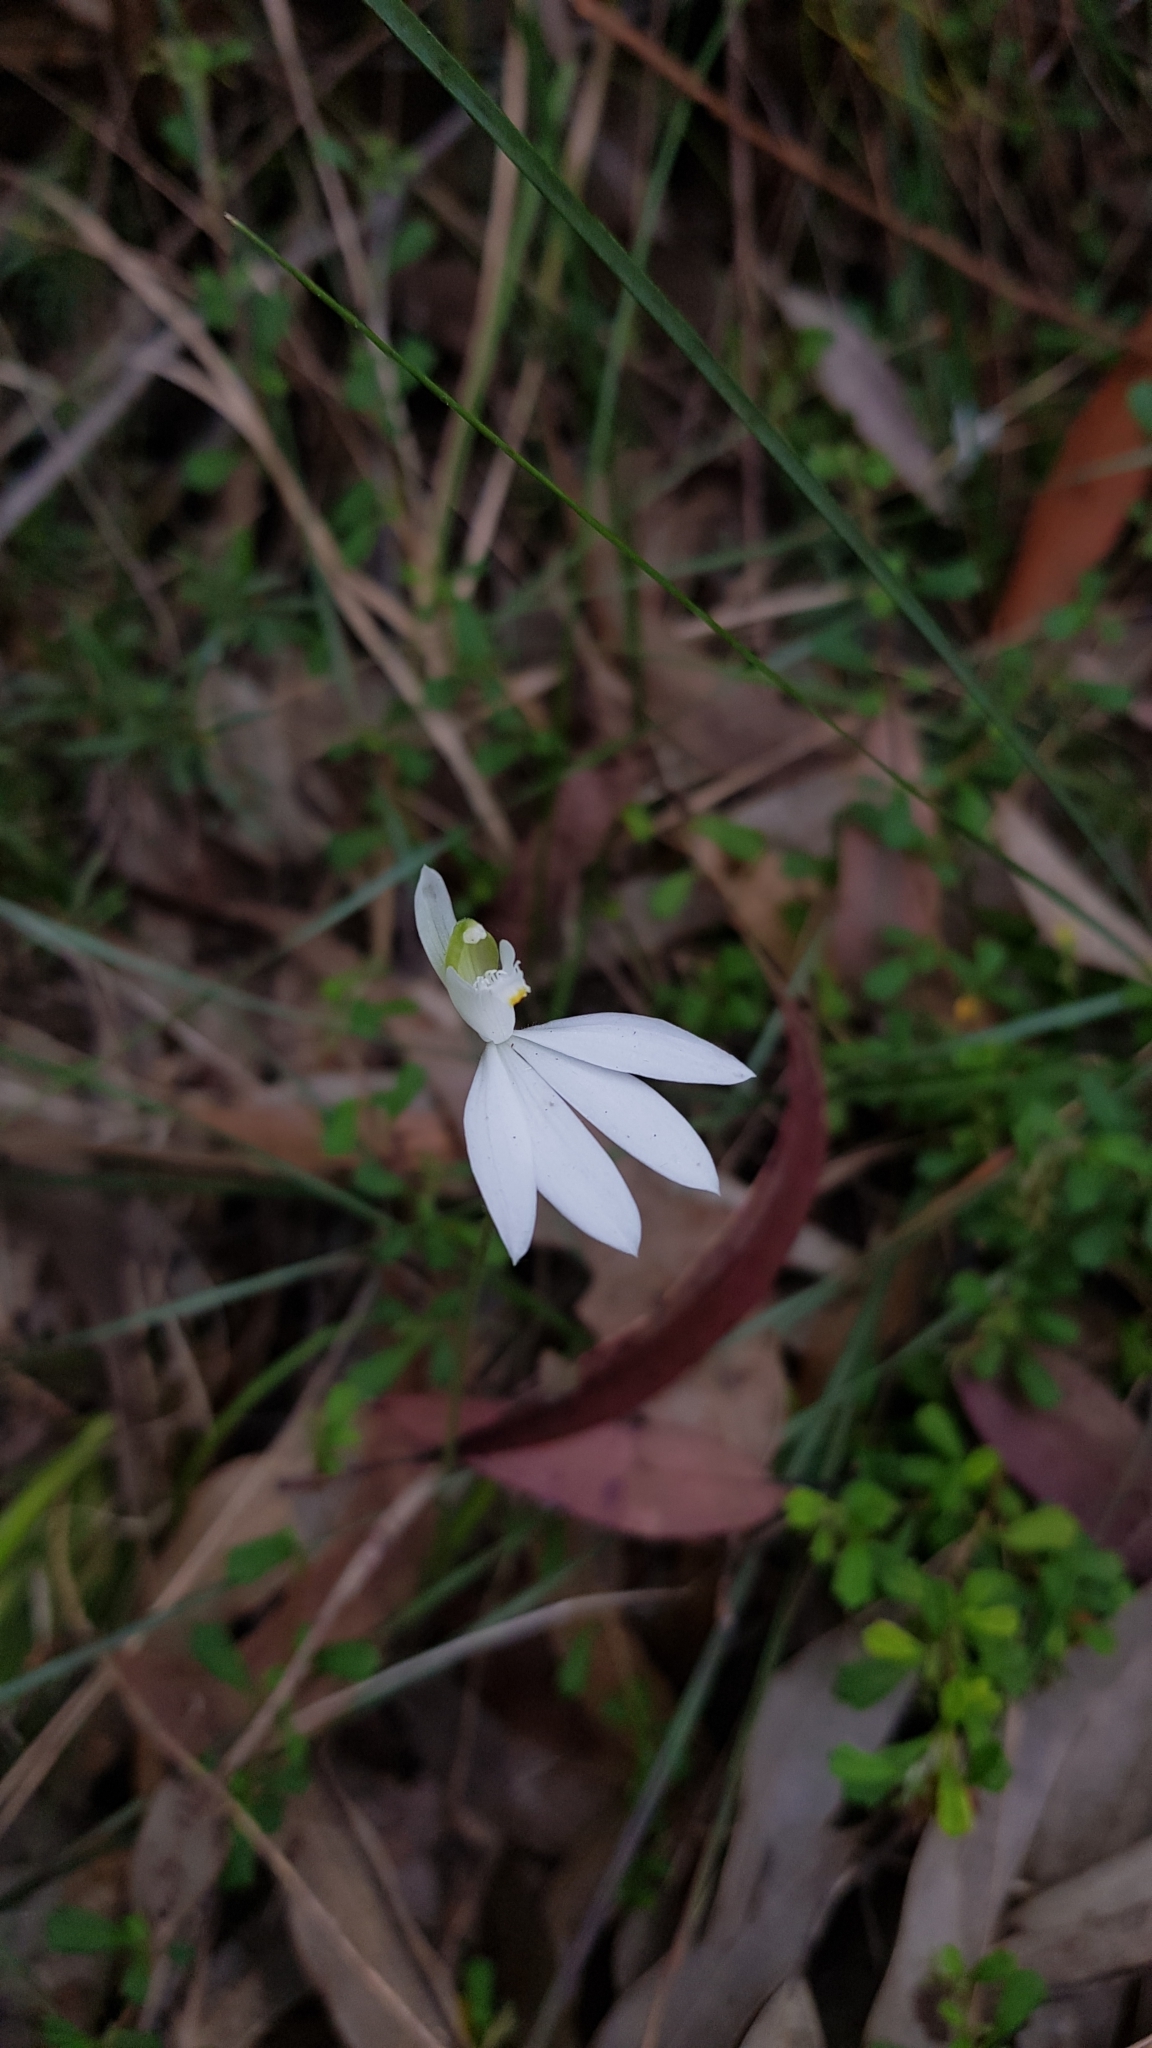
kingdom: Plantae
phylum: Tracheophyta
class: Liliopsida
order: Asparagales
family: Orchidaceae
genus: Caladenia
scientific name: Caladenia catenata
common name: White caladenia
